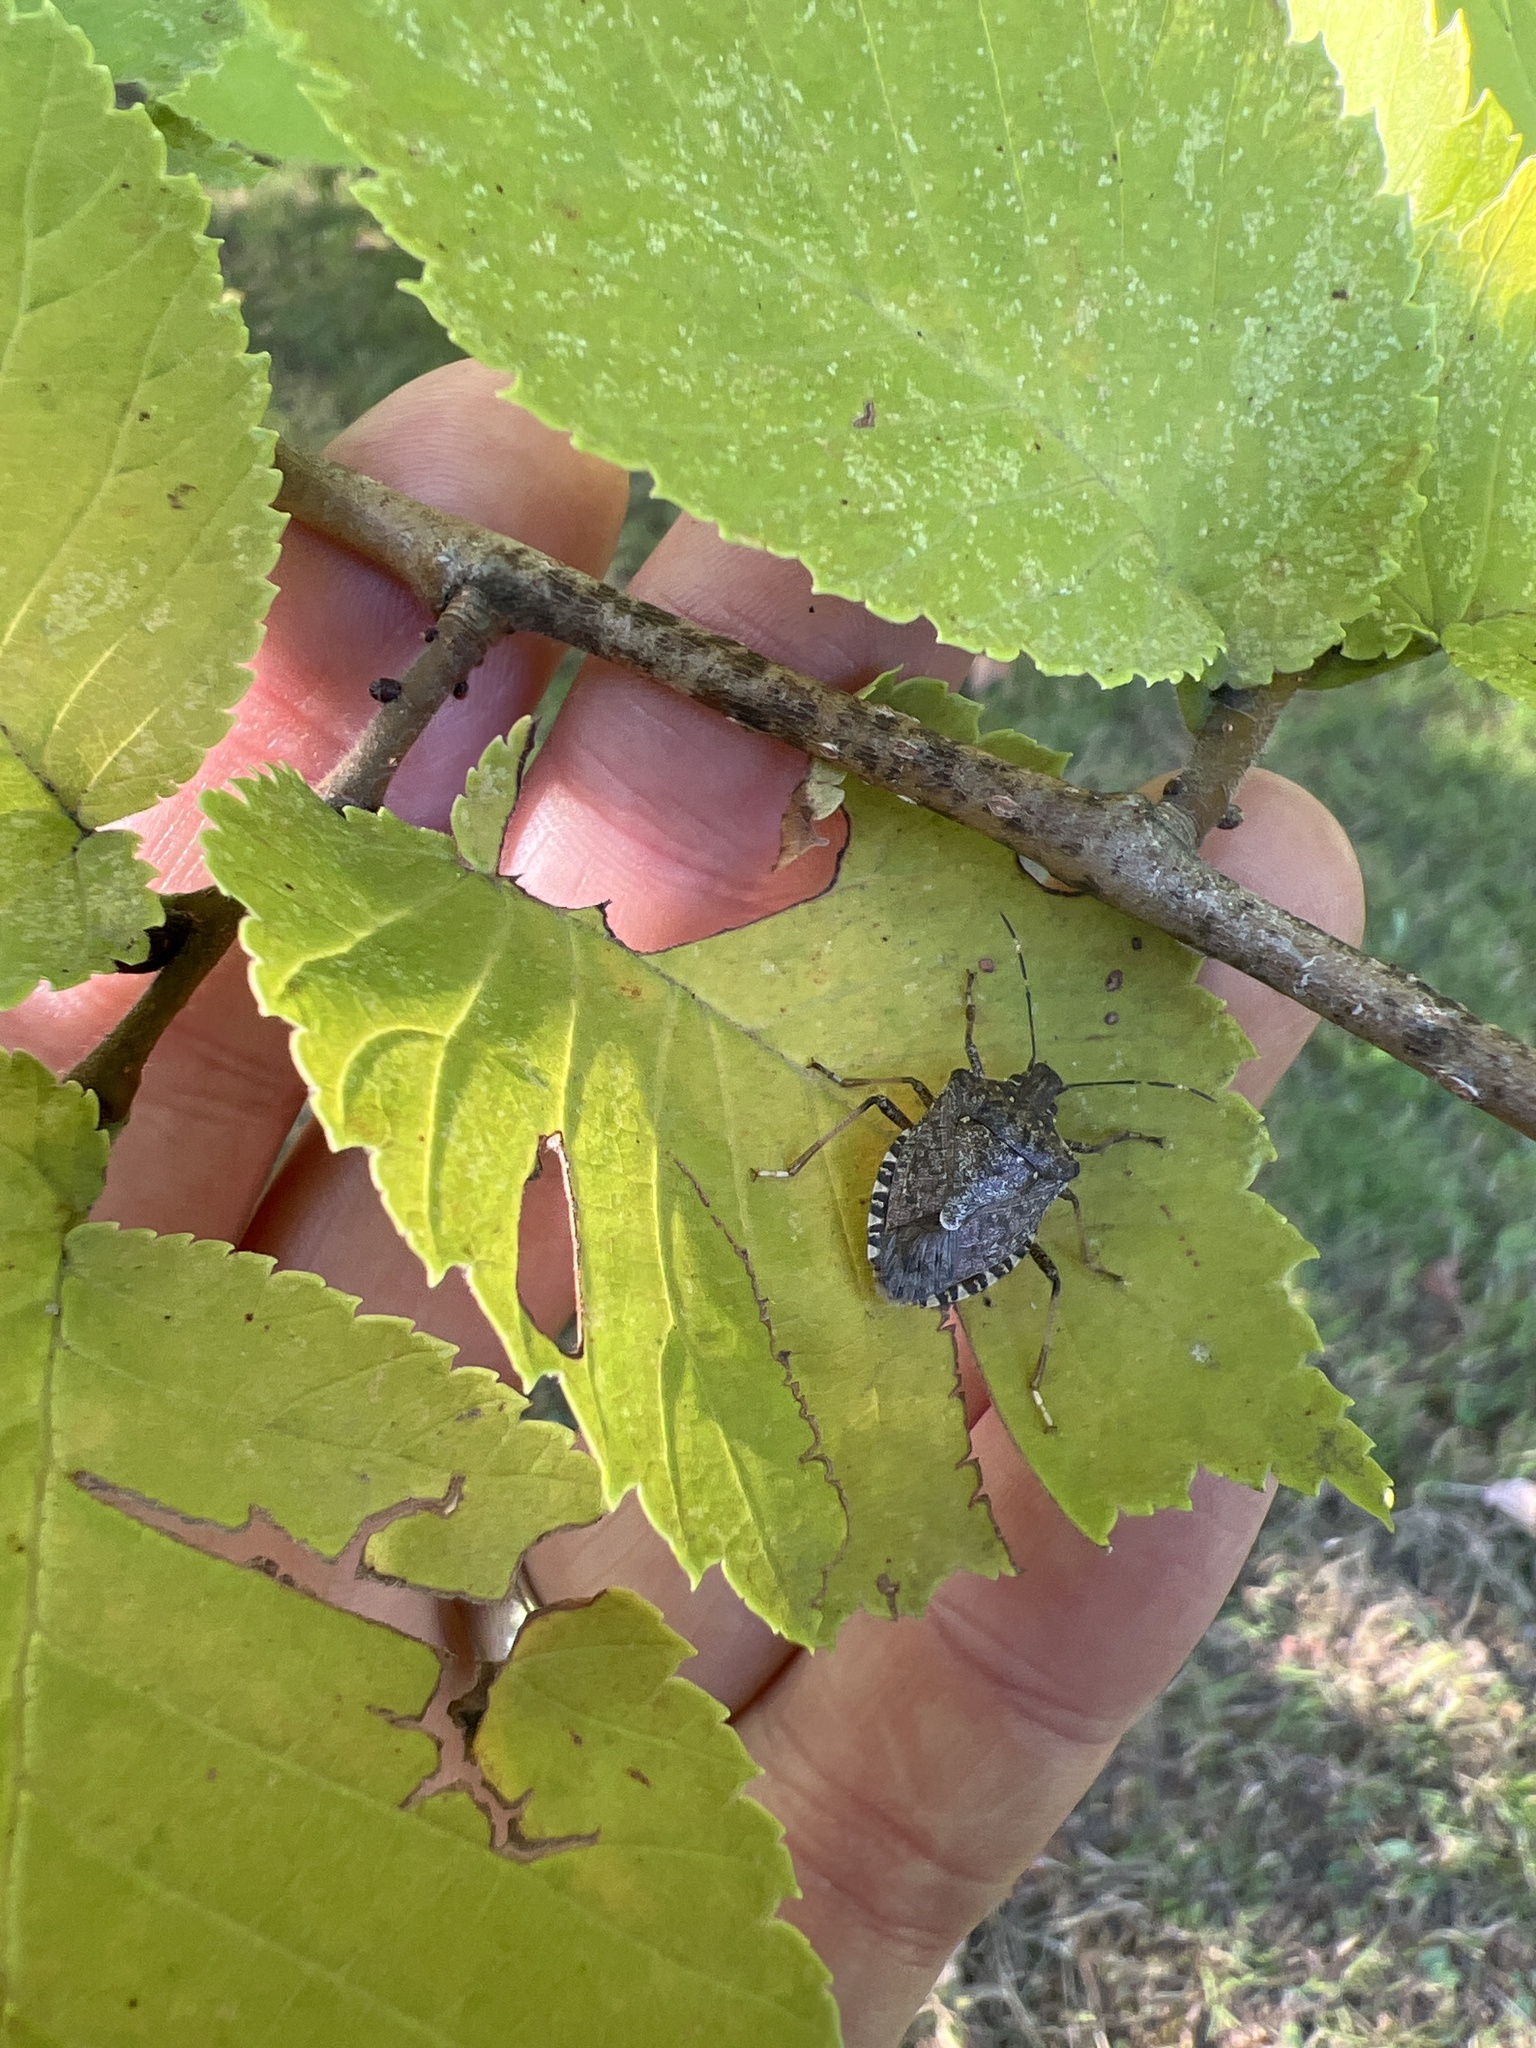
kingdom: Animalia
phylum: Arthropoda
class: Insecta
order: Hemiptera
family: Pentatomidae
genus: Halyomorpha
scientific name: Halyomorpha halys
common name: Brown marmorated stink bug
